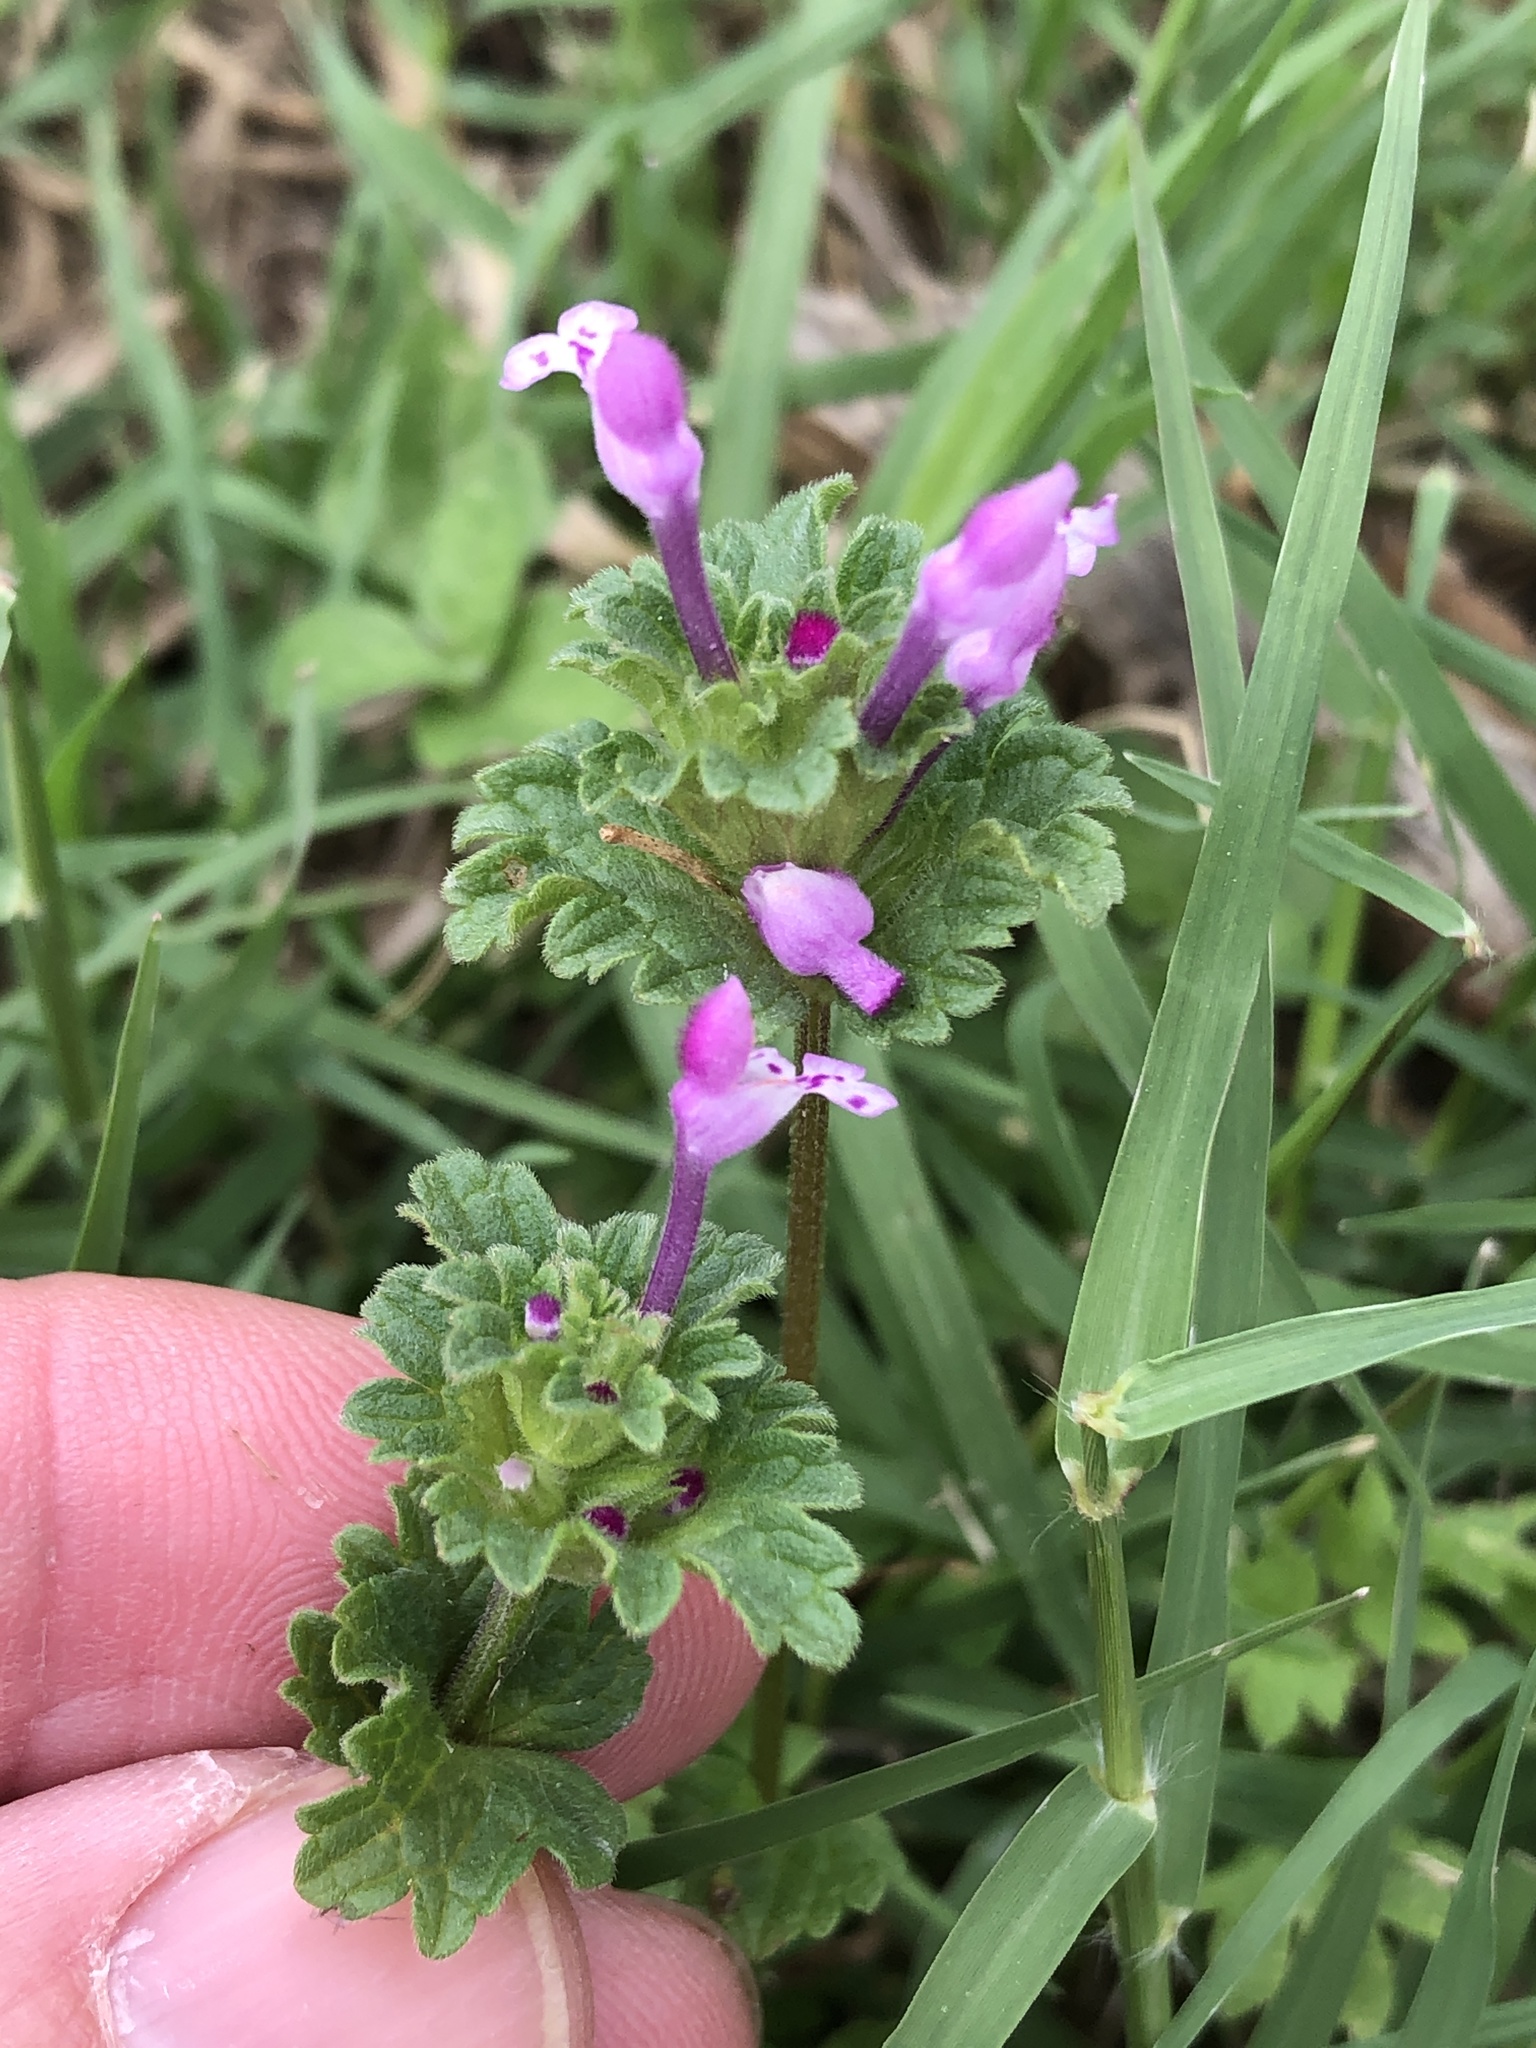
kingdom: Plantae
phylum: Tracheophyta
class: Magnoliopsida
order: Lamiales
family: Lamiaceae
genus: Lamium
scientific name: Lamium amplexicaule
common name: Henbit dead-nettle
